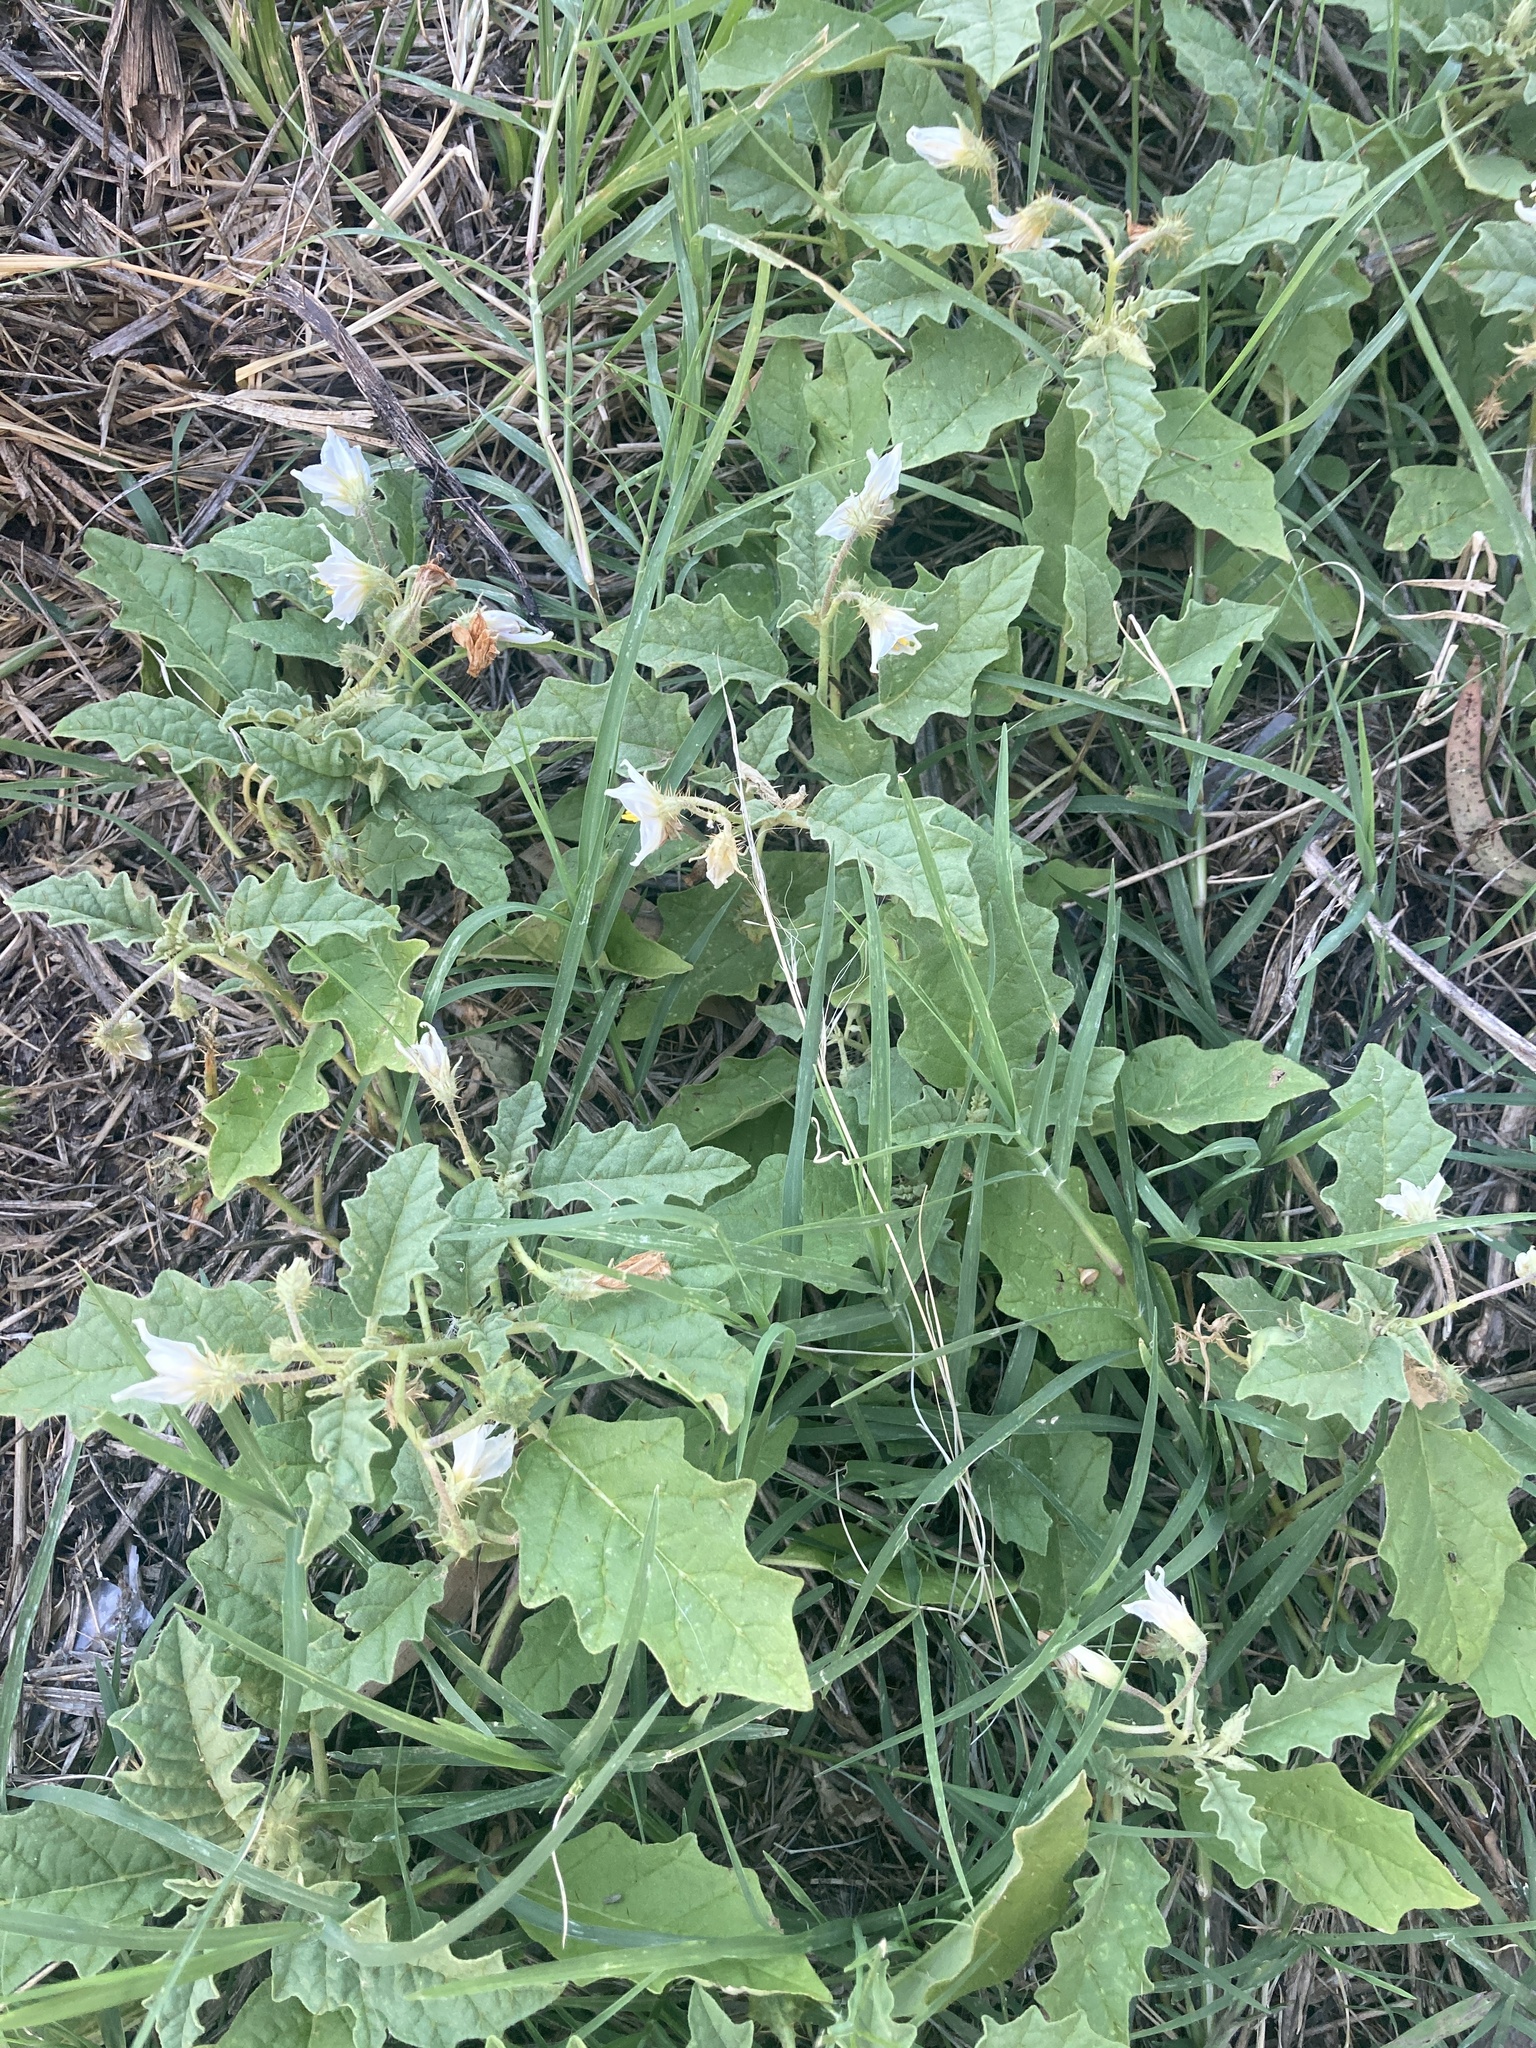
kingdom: Plantae
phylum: Tracheophyta
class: Magnoliopsida
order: Solanales
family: Solanaceae
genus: Solanum
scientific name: Solanum juvenale
